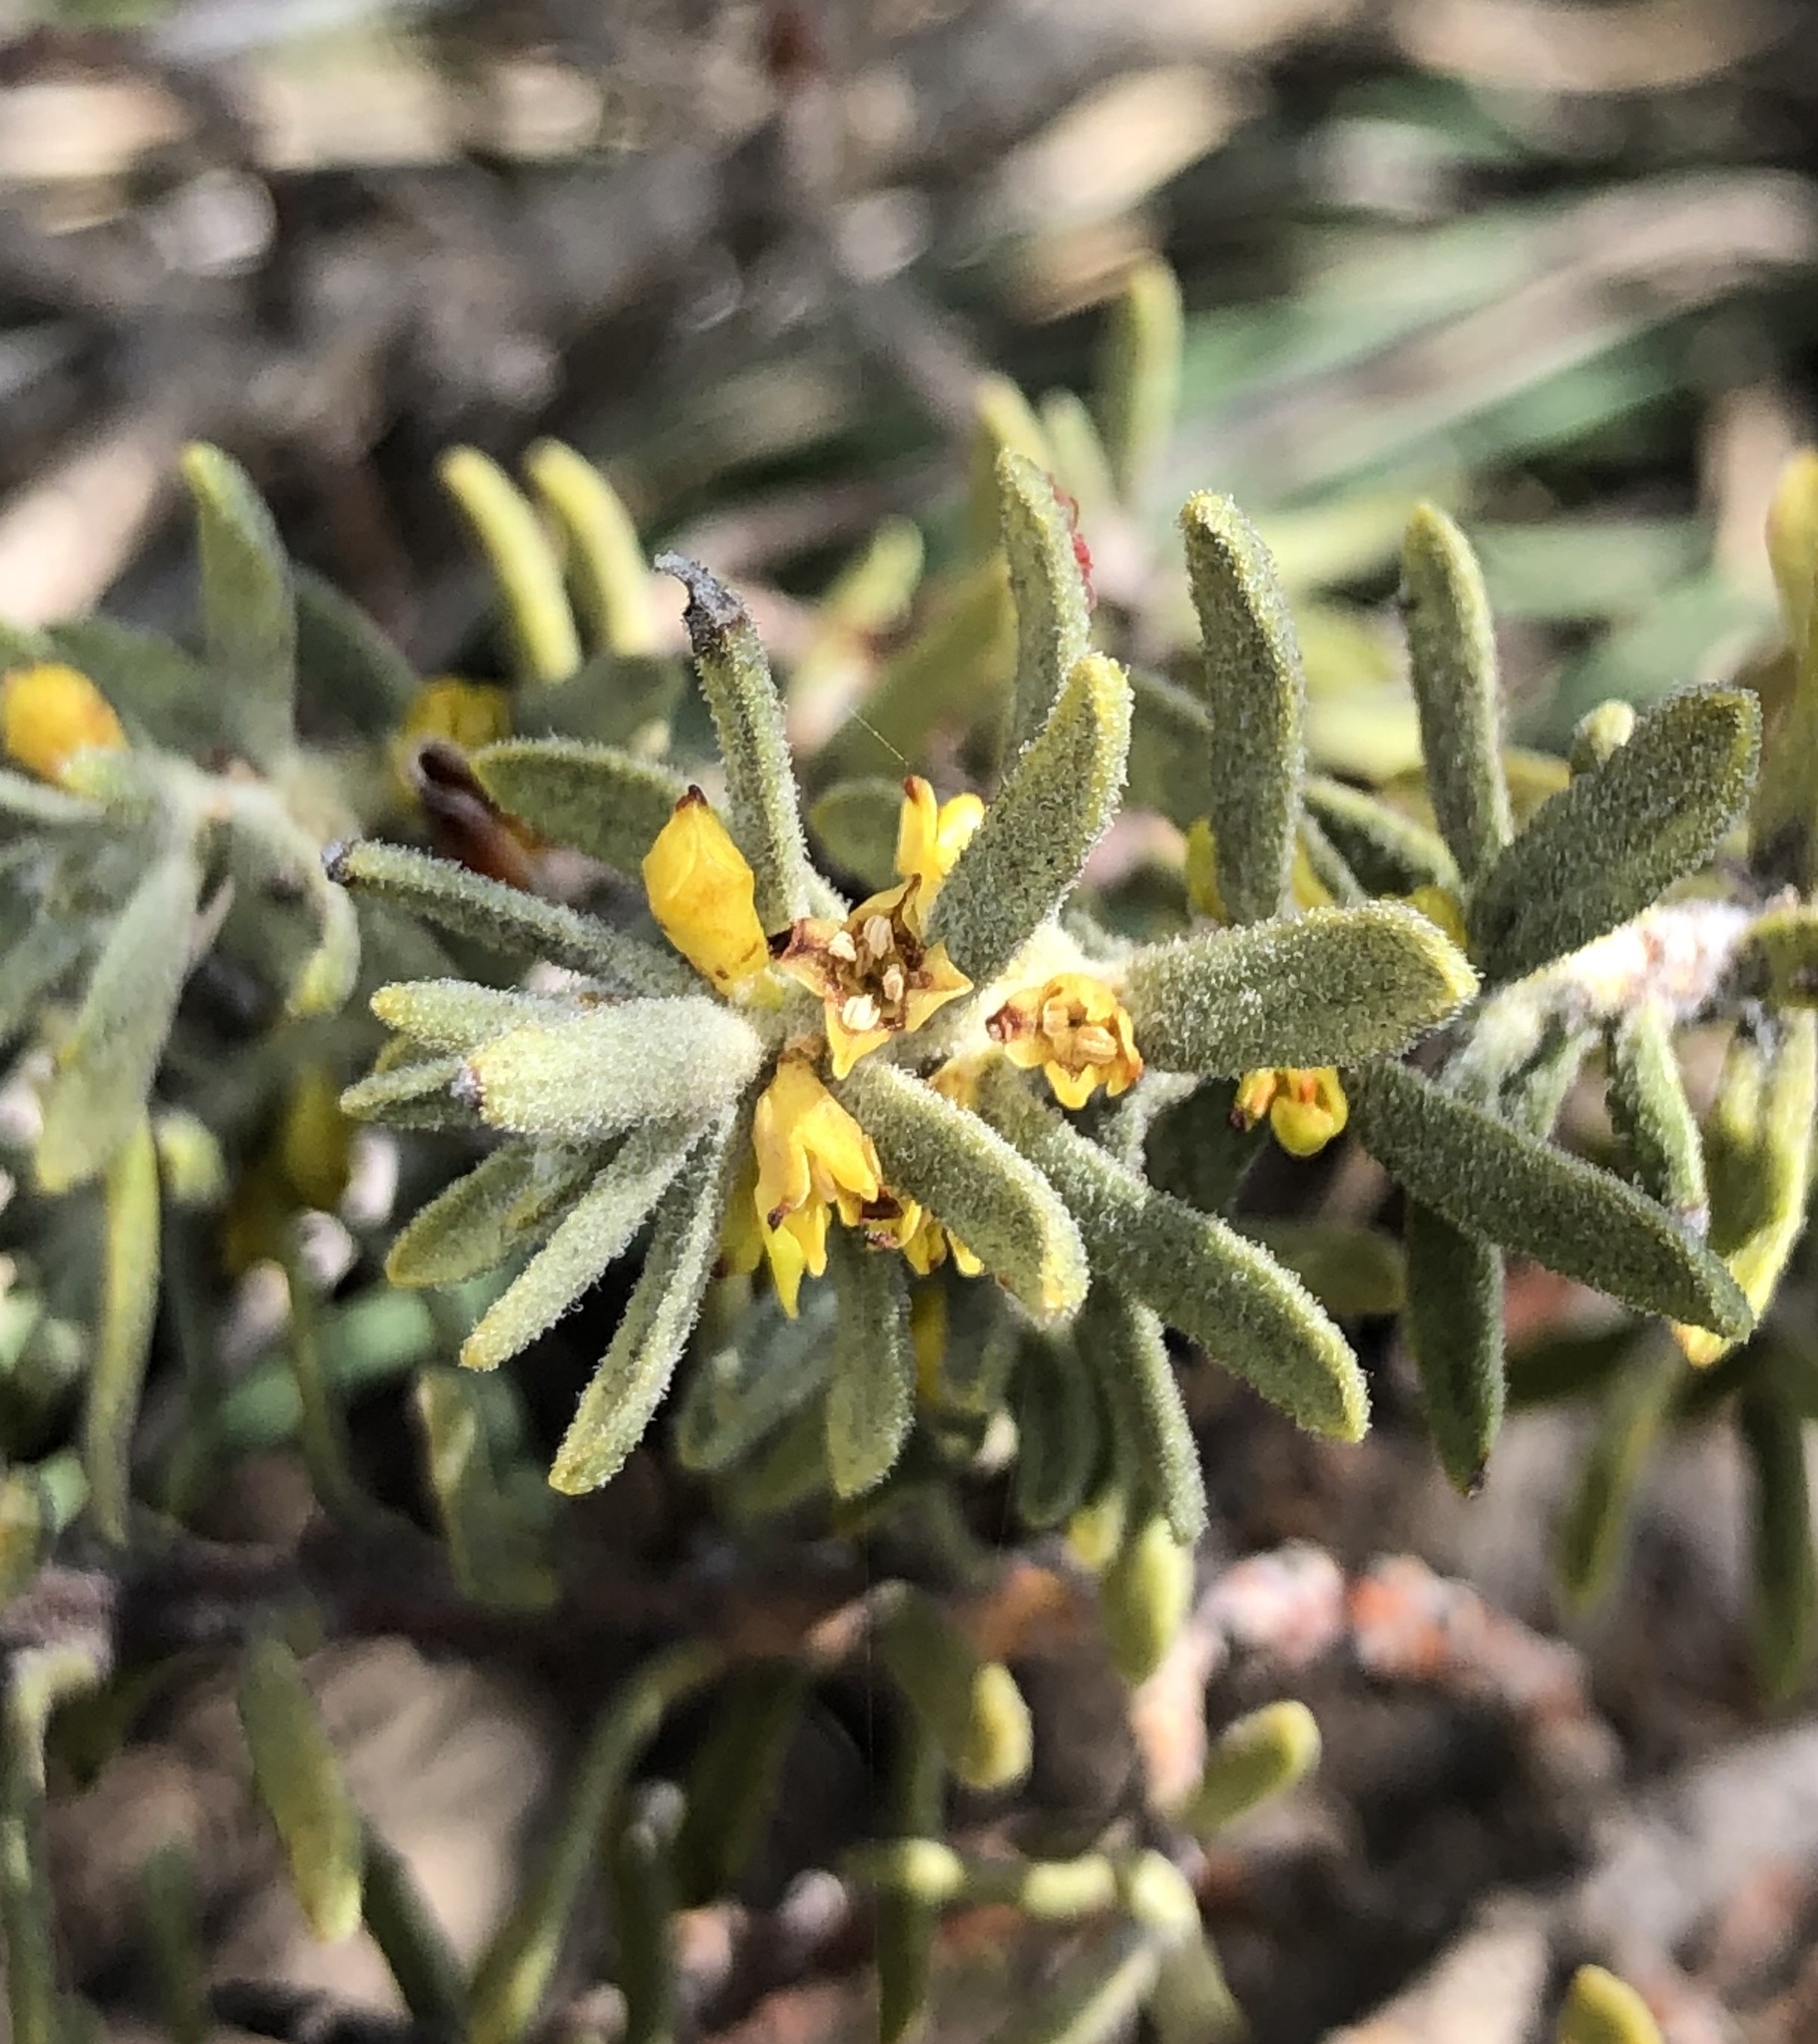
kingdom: Plantae
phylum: Tracheophyta
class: Magnoliopsida
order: Malvales
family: Thymelaeaceae
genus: Thymelaea
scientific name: Thymelaea tinctoria
